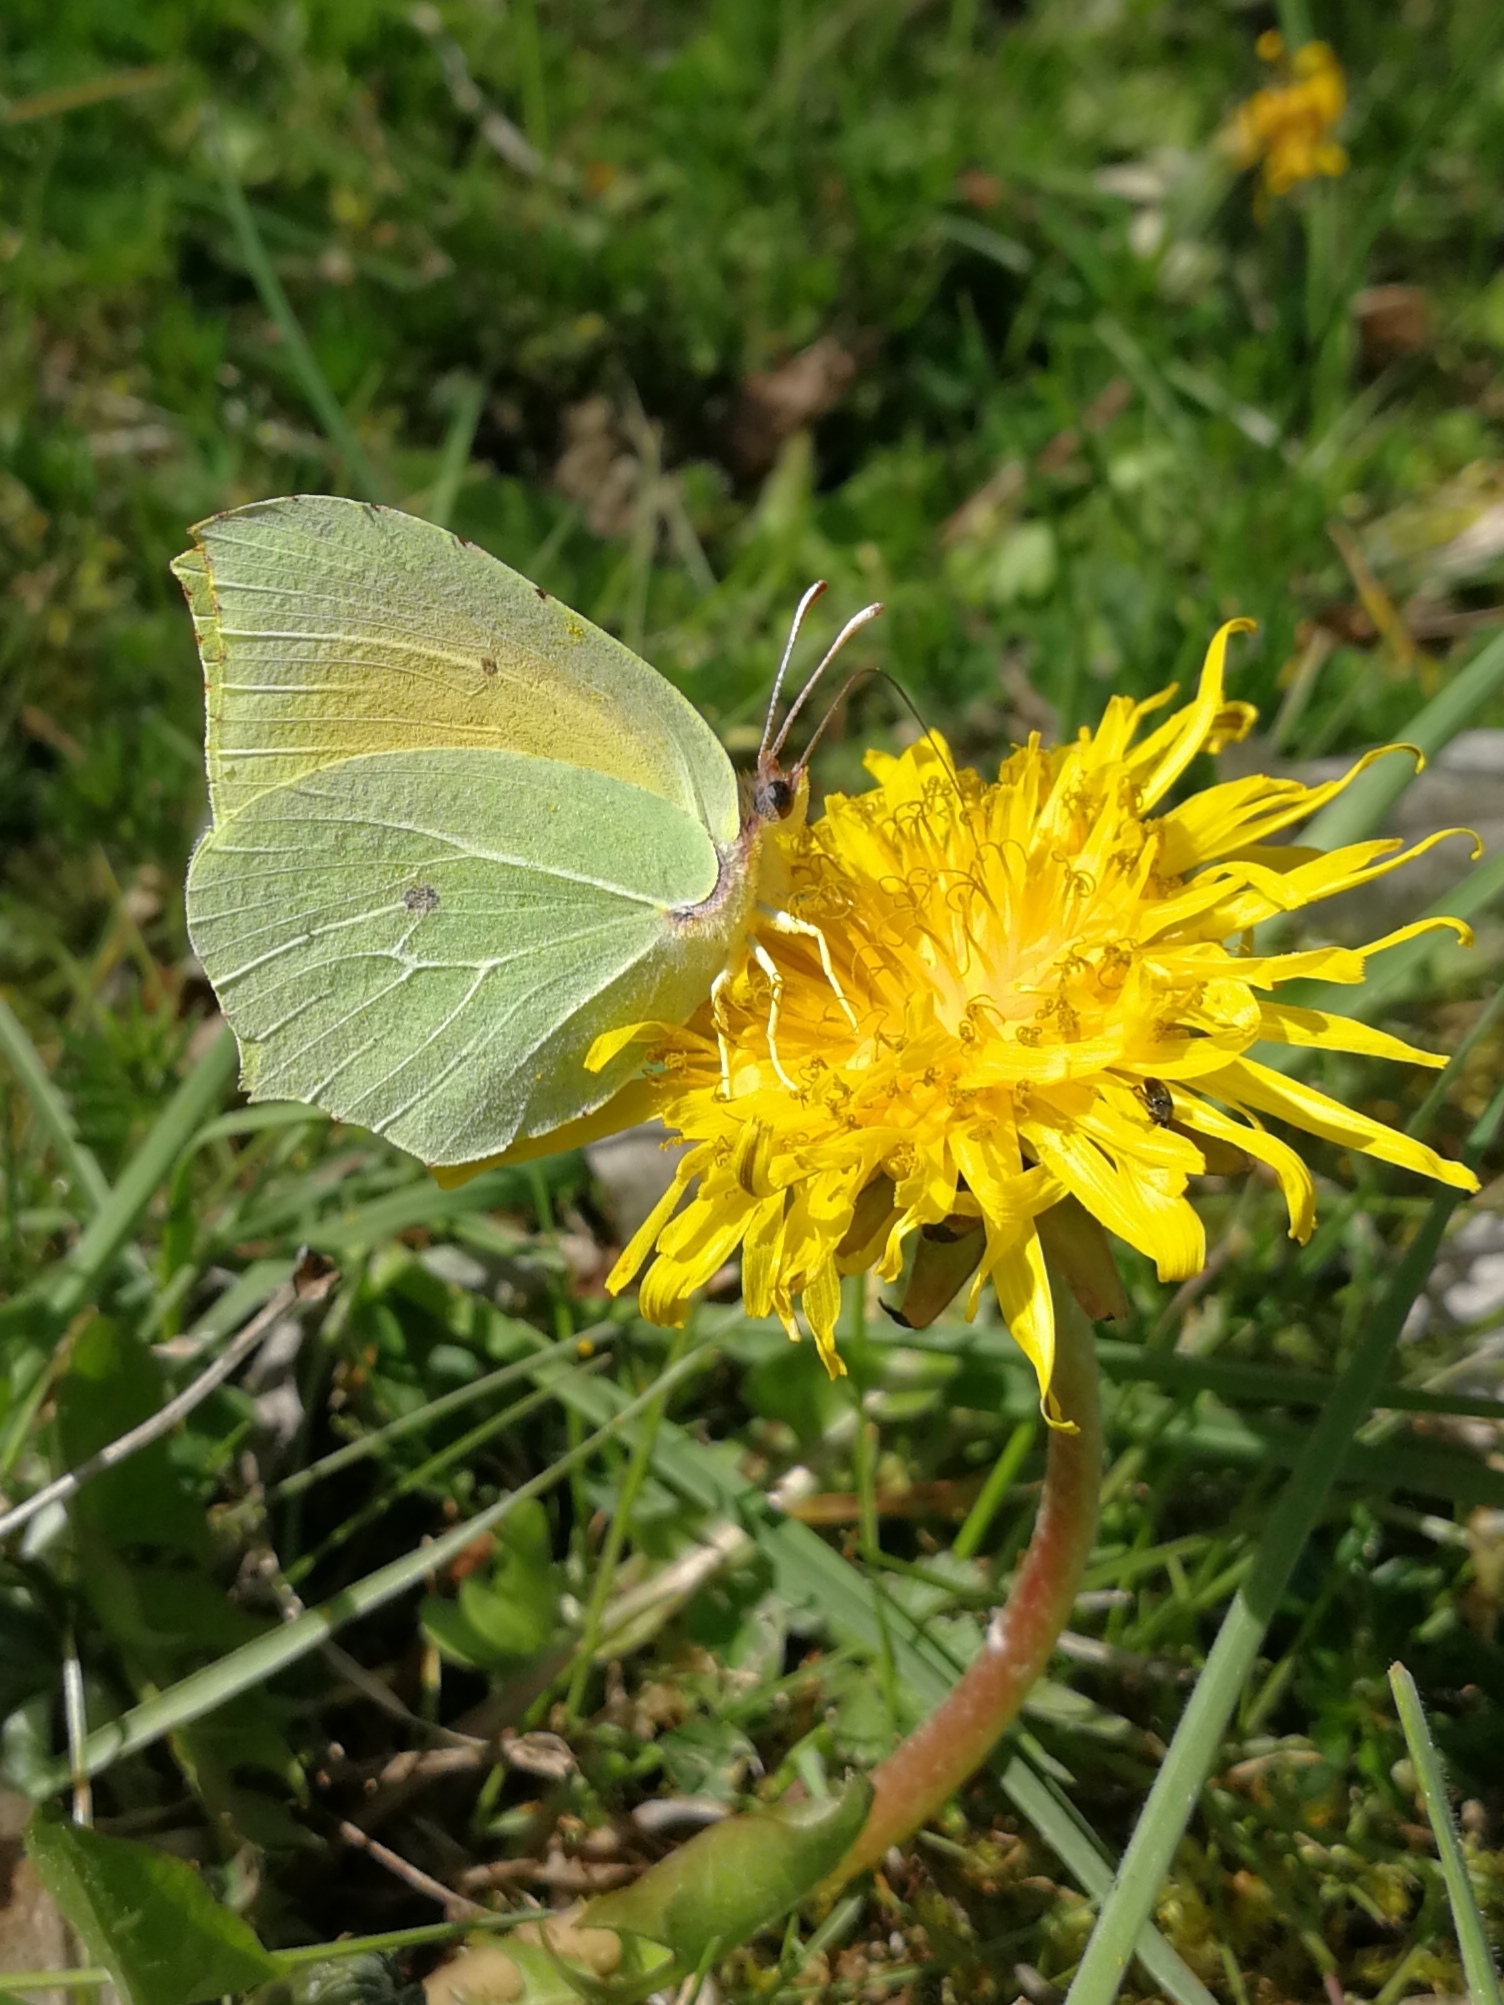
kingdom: Animalia
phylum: Arthropoda
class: Insecta
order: Lepidoptera
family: Pieridae
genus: Gonepteryx
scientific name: Gonepteryx cleopatra
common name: Cleopatra
